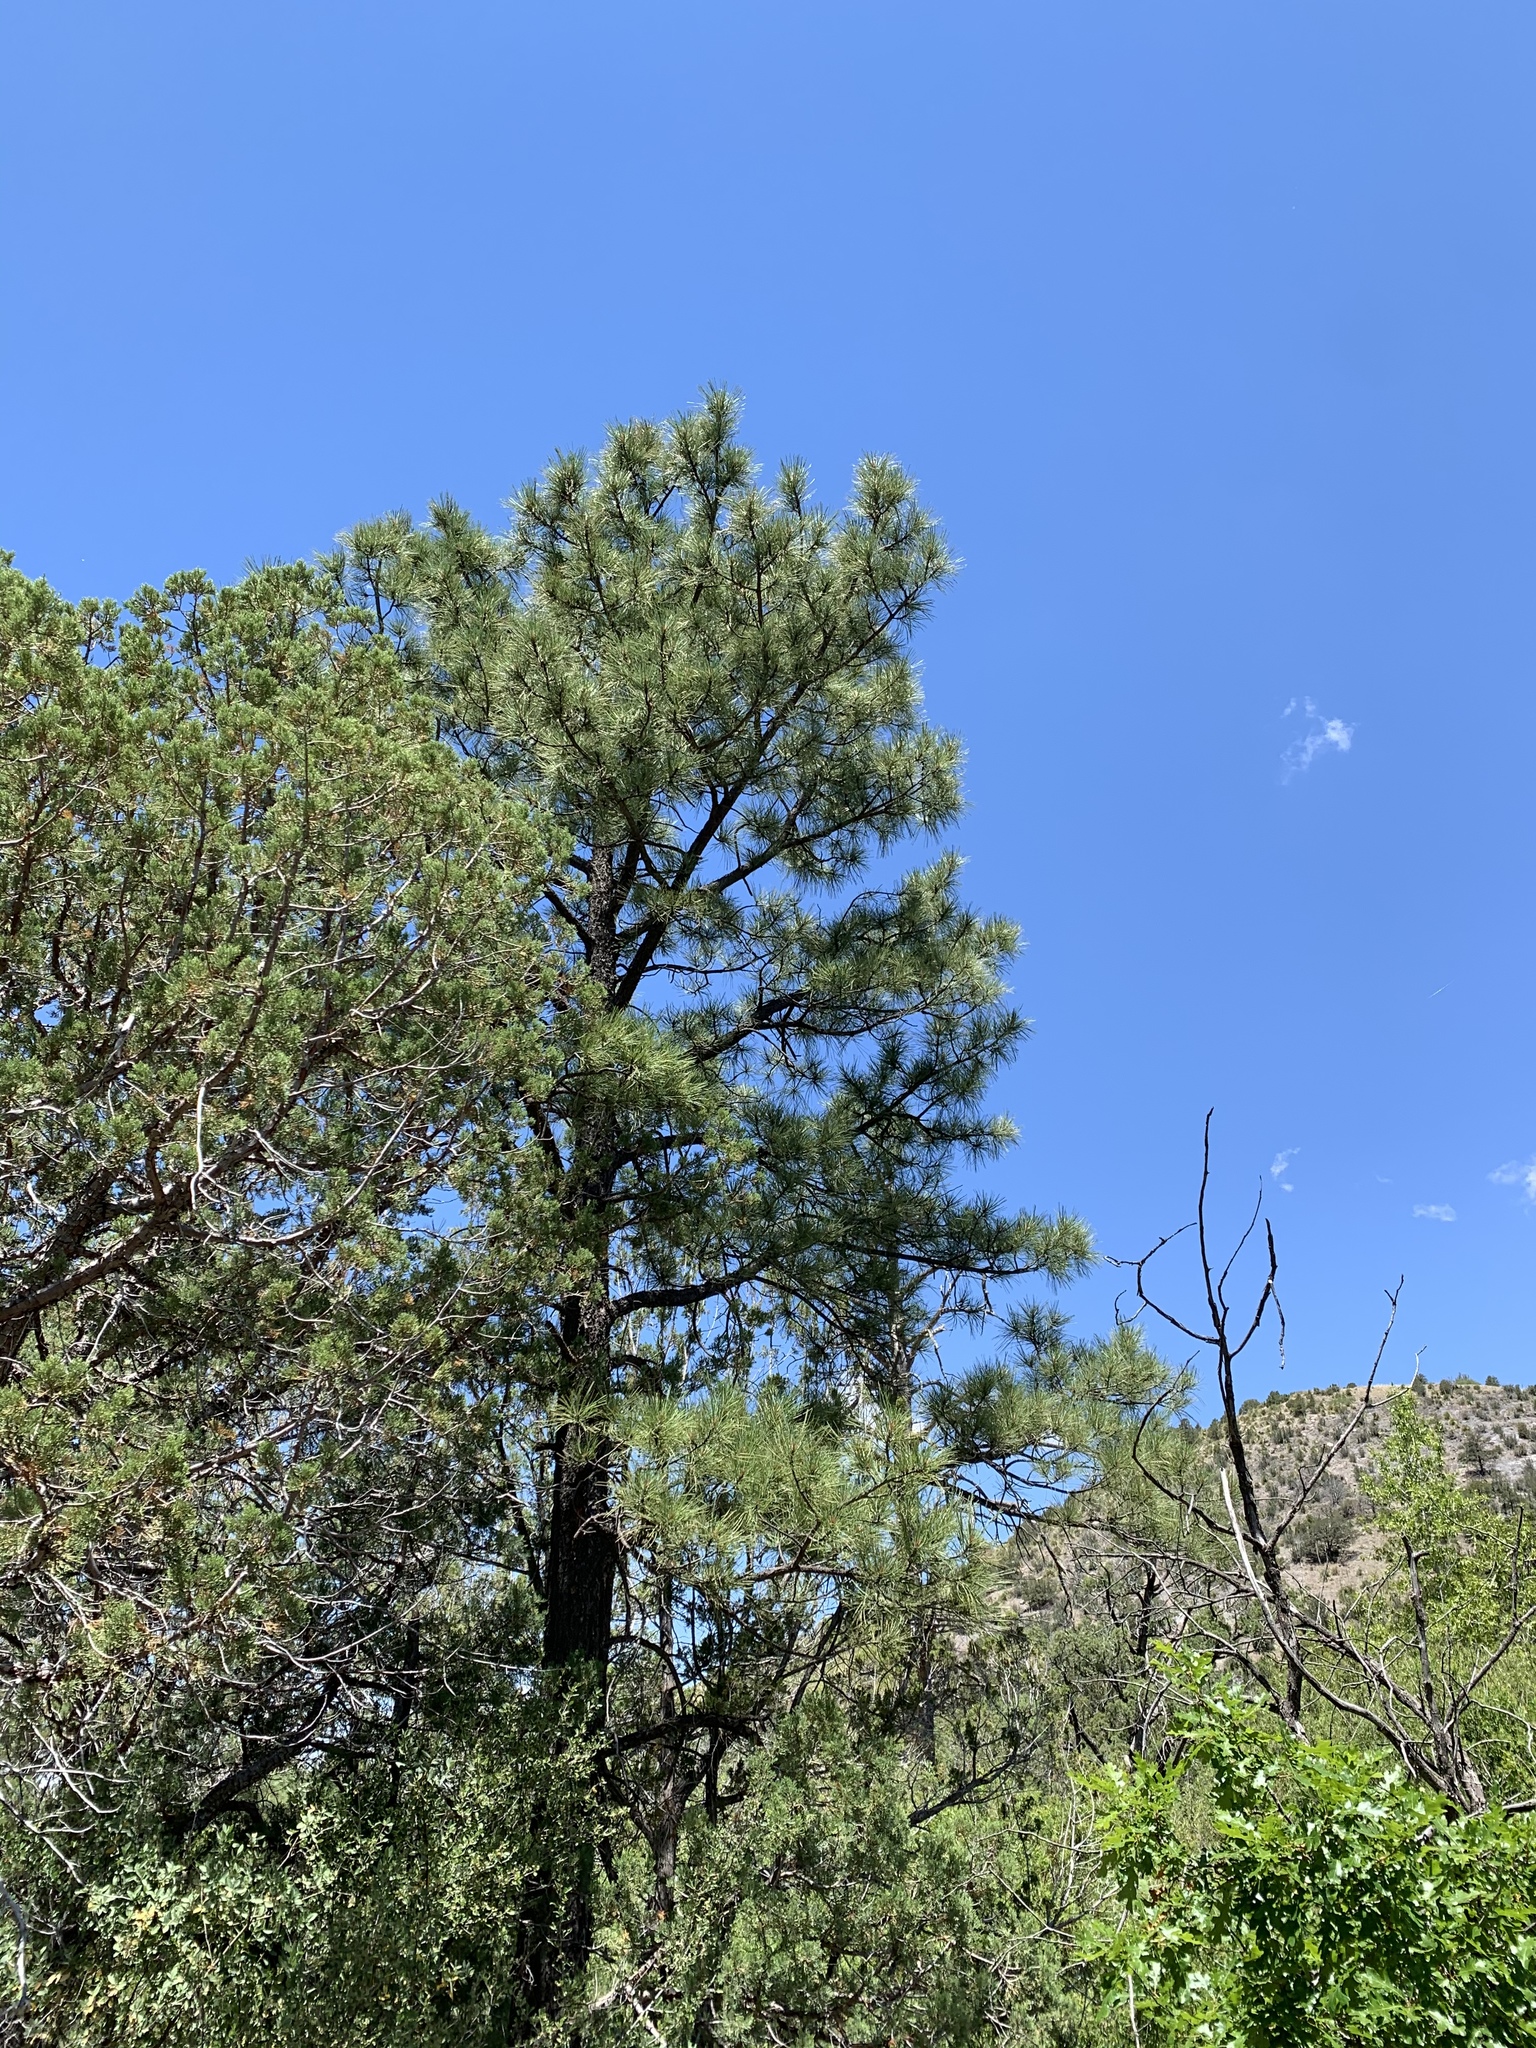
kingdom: Plantae
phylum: Tracheophyta
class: Pinopsida
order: Pinales
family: Pinaceae
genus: Pinus
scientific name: Pinus ponderosa
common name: Western yellow-pine
